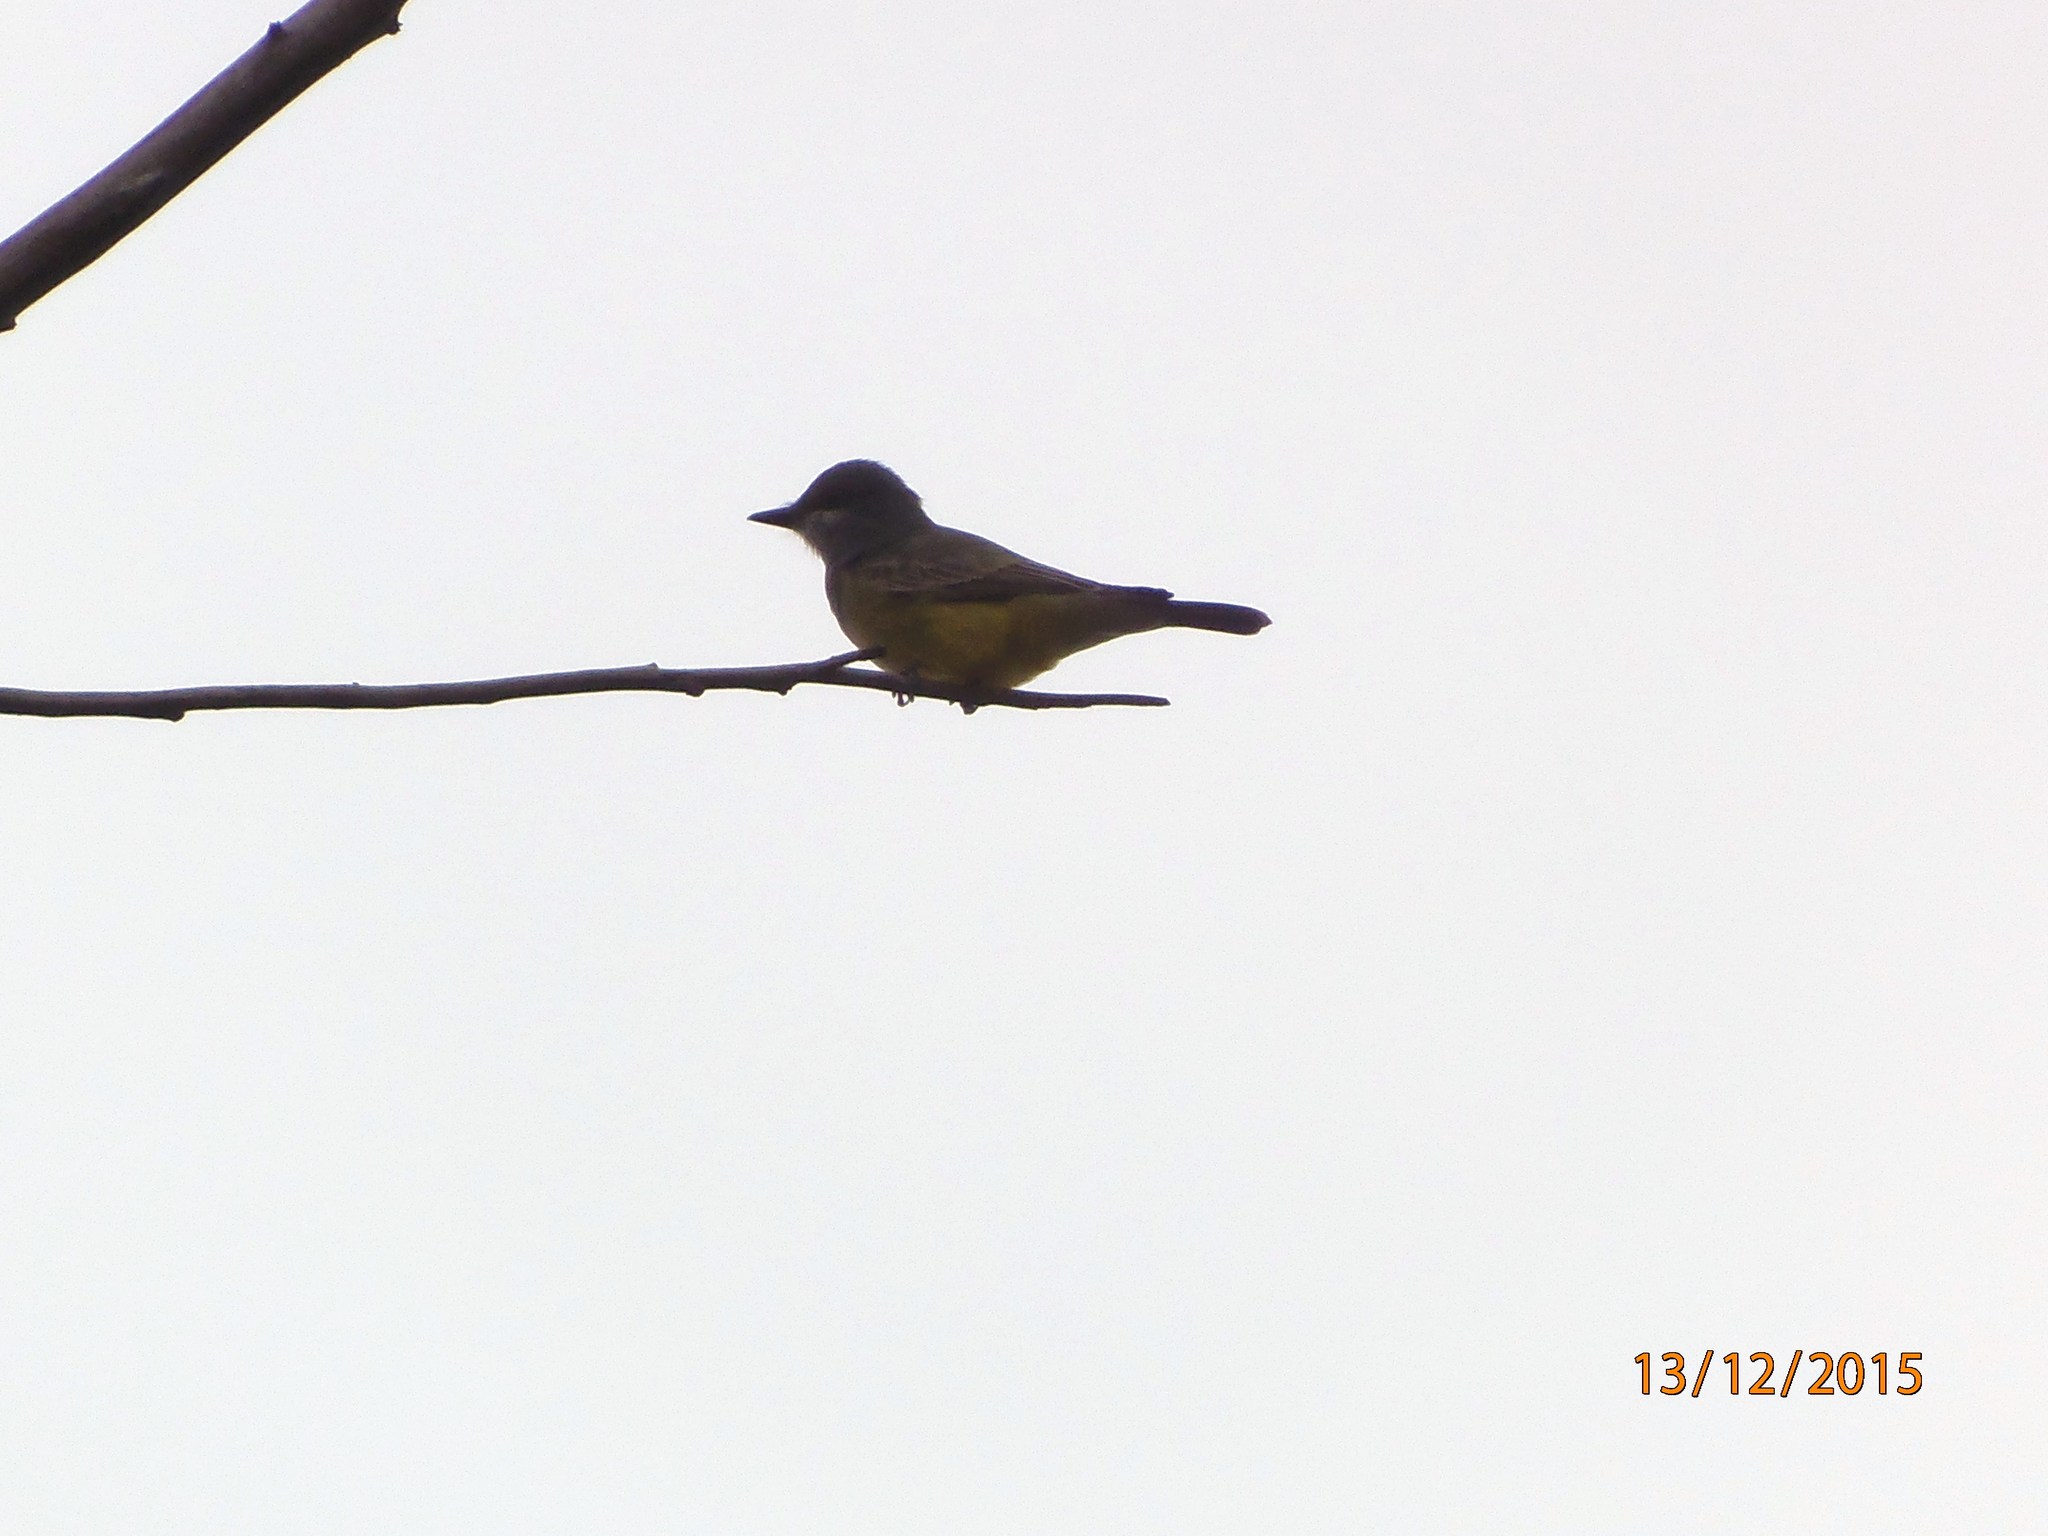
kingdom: Animalia
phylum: Chordata
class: Aves
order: Passeriformes
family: Tyrannidae
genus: Tyrannus
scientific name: Tyrannus vociferans
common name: Cassin's kingbird
